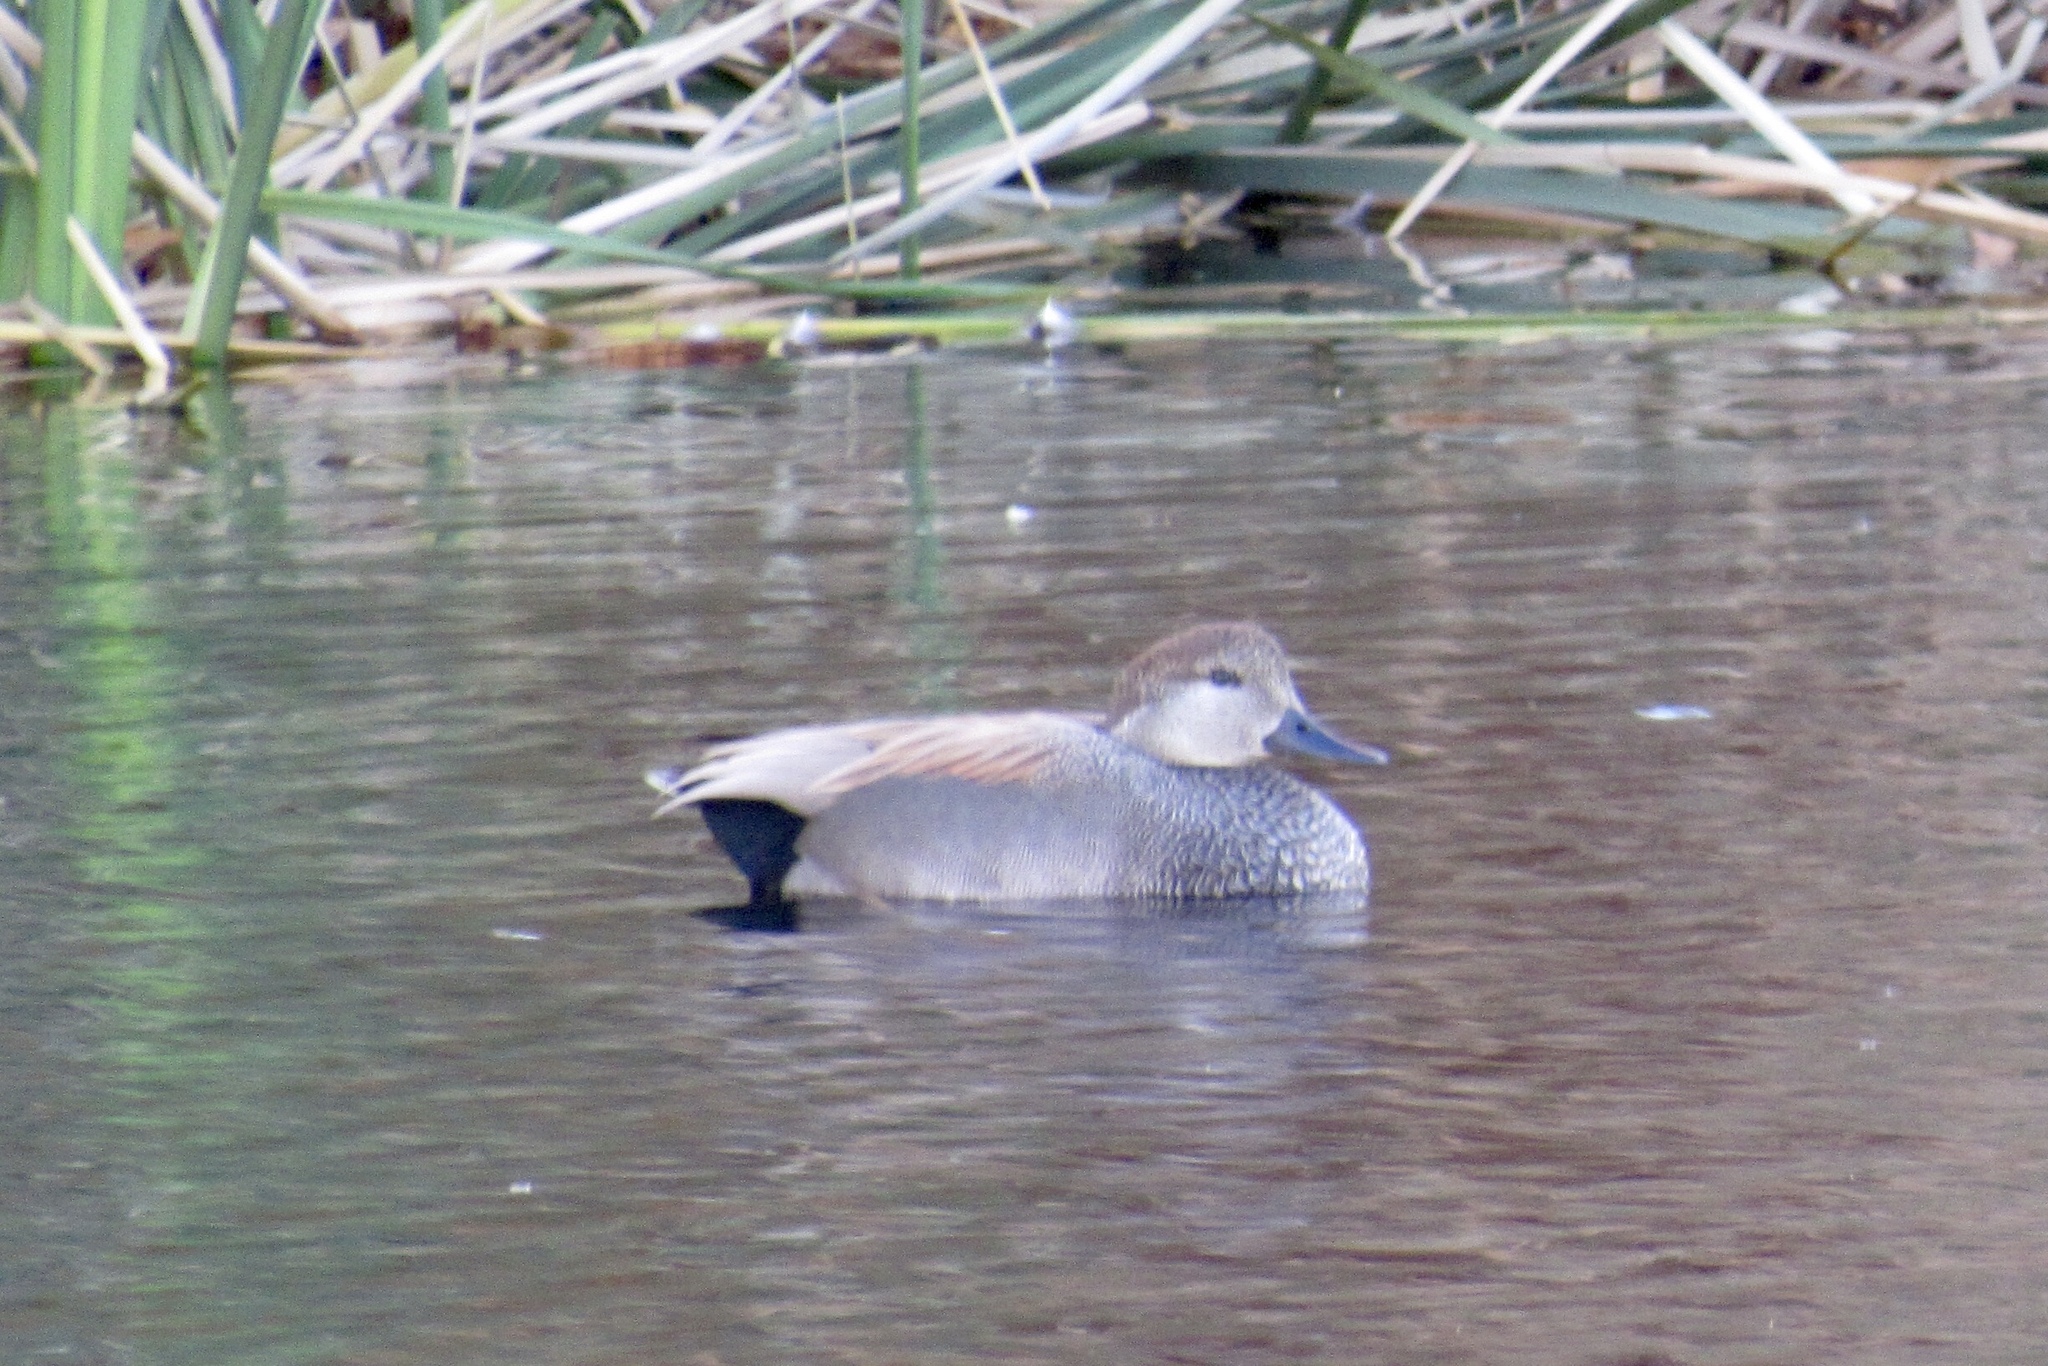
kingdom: Animalia
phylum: Chordata
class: Aves
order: Anseriformes
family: Anatidae
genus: Mareca
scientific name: Mareca strepera
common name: Gadwall
